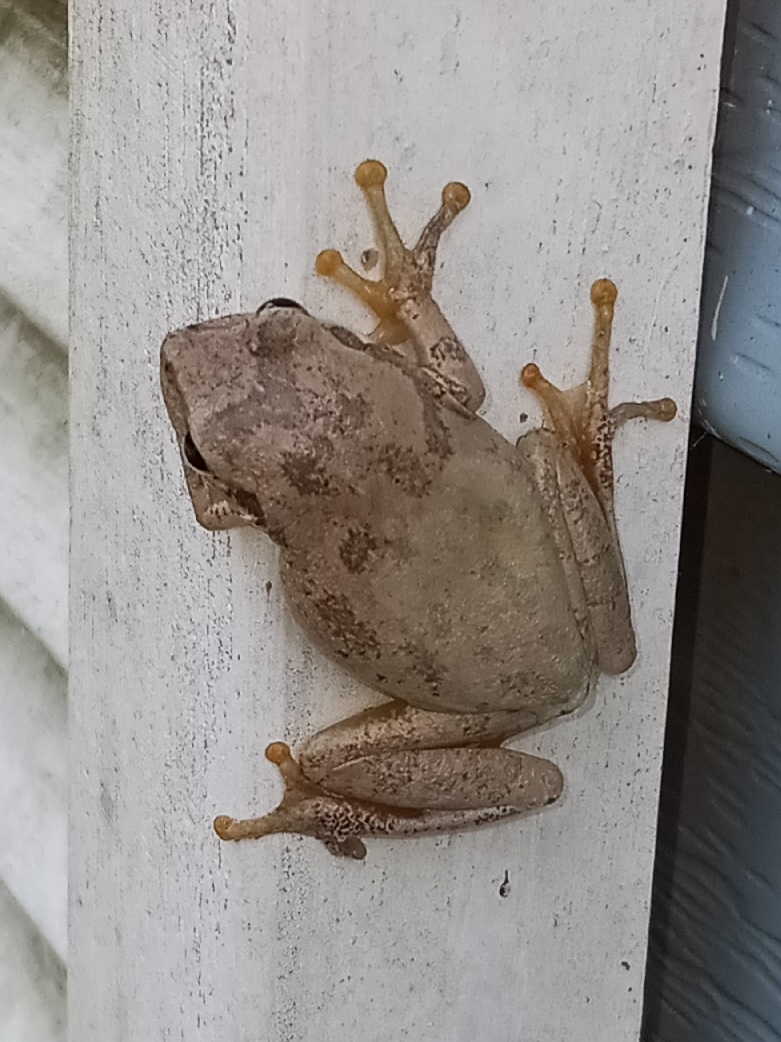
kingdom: Animalia
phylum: Chordata
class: Amphibia
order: Anura
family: Hylidae
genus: Dryophytes
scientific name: Dryophytes squirellus
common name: Squirrel treefrog
